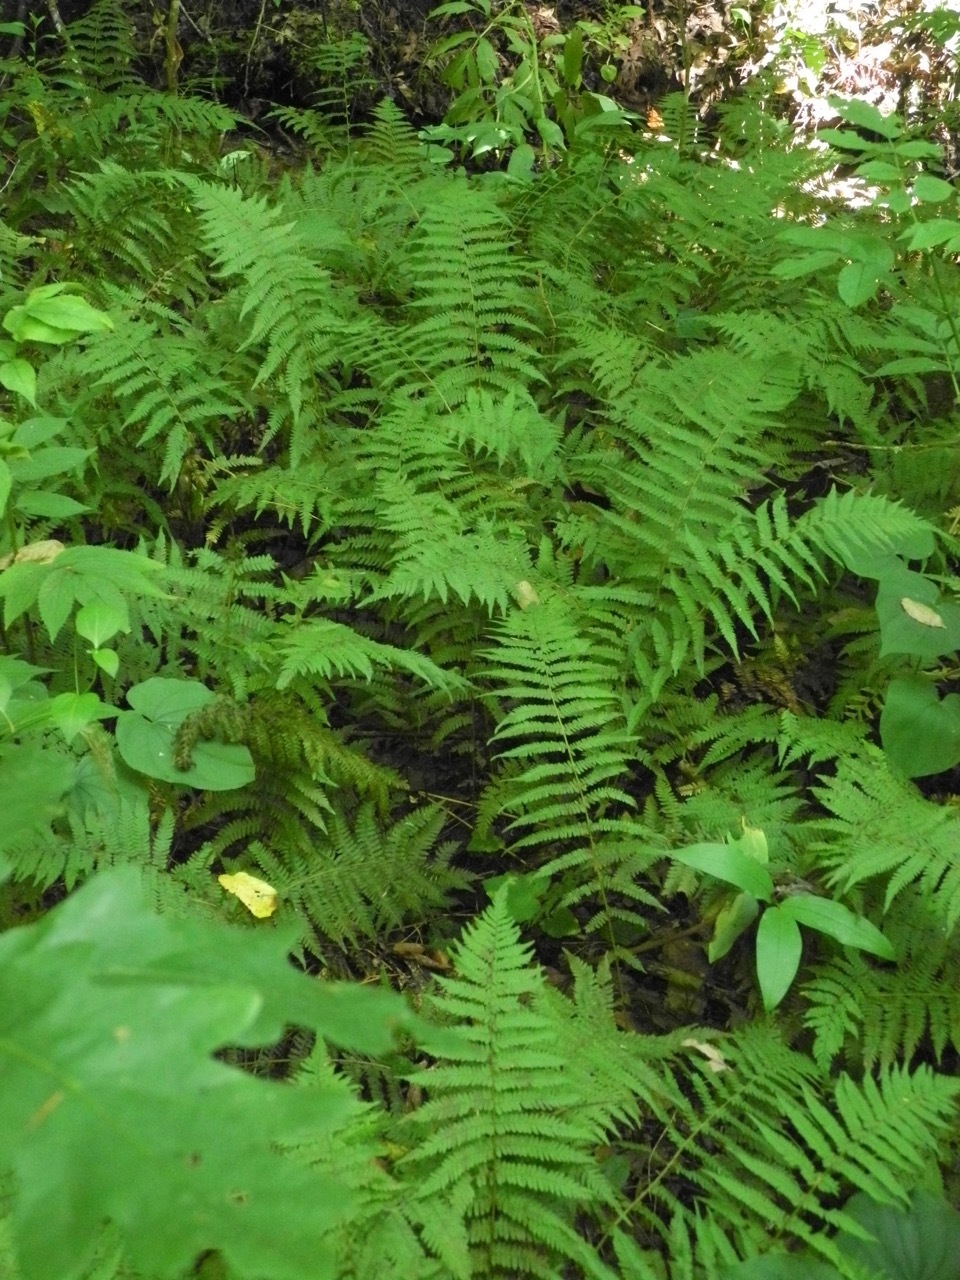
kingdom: Plantae
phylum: Tracheophyta
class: Polypodiopsida
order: Polypodiales
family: Thelypteridaceae
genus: Amauropelta
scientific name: Amauropelta noveboracensis
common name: New york fern
